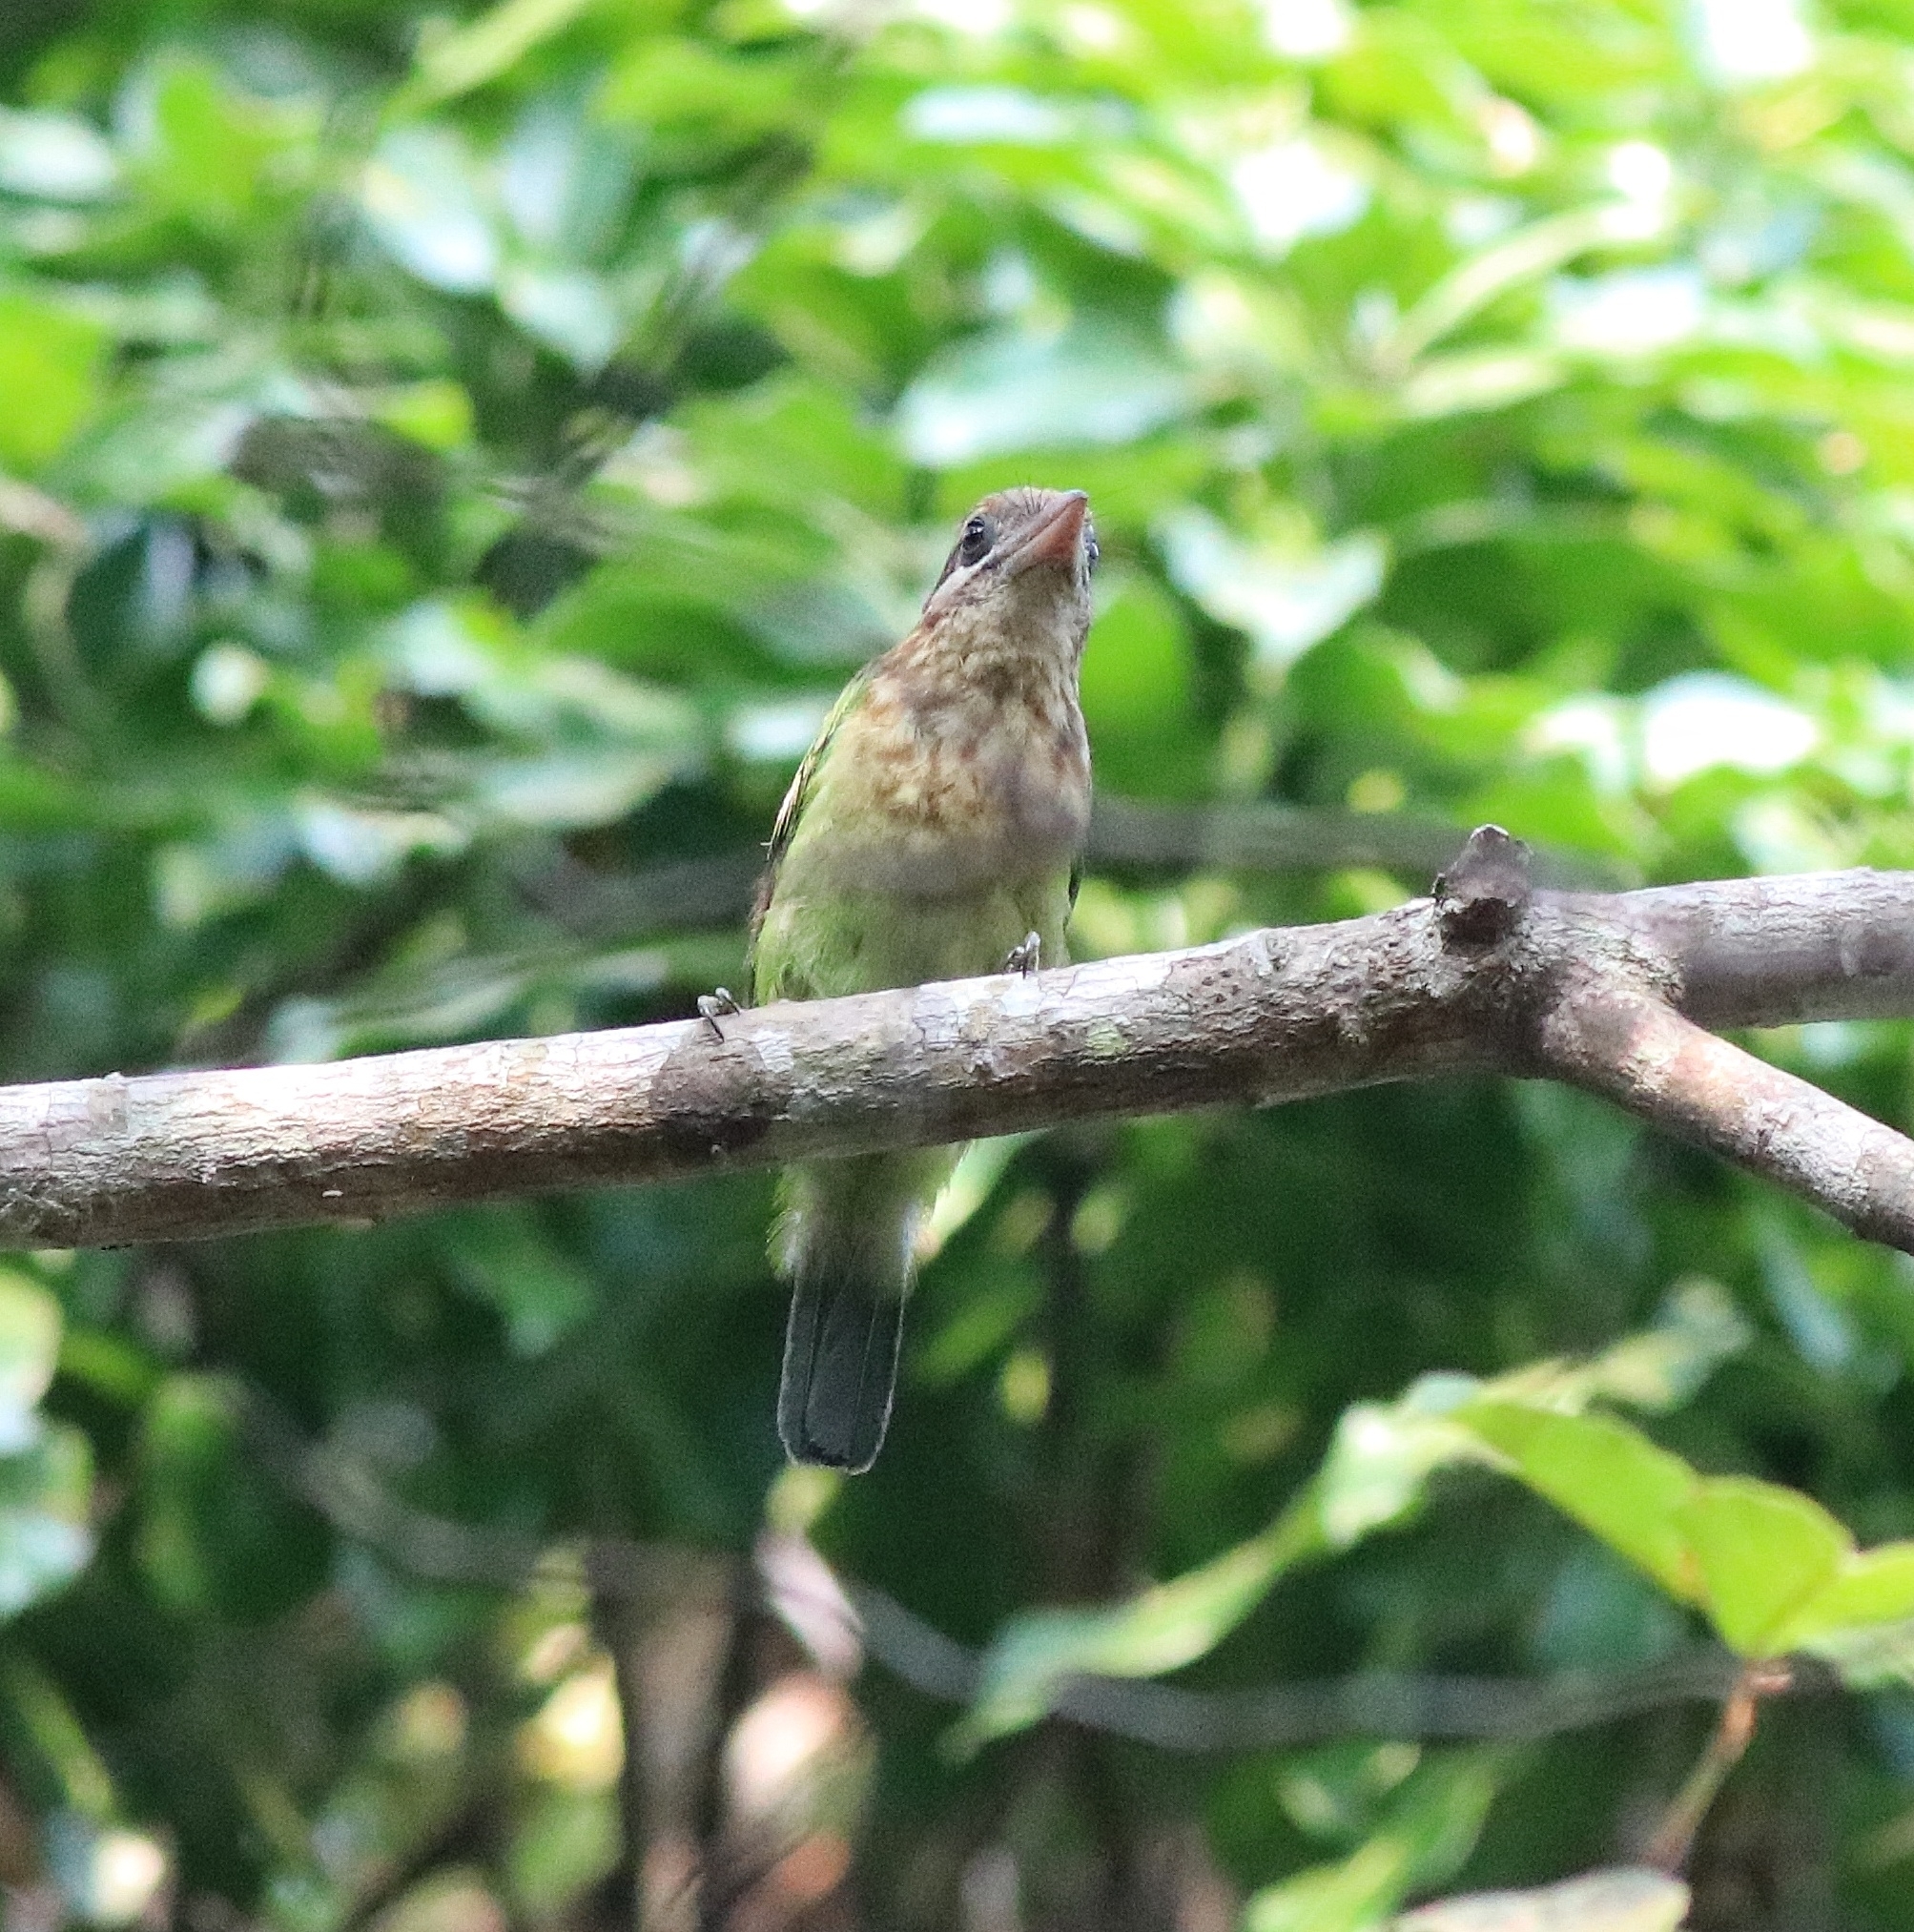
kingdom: Animalia
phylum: Chordata
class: Aves
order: Piciformes
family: Megalaimidae
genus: Psilopogon
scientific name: Psilopogon viridis
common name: White-cheeked barbet
